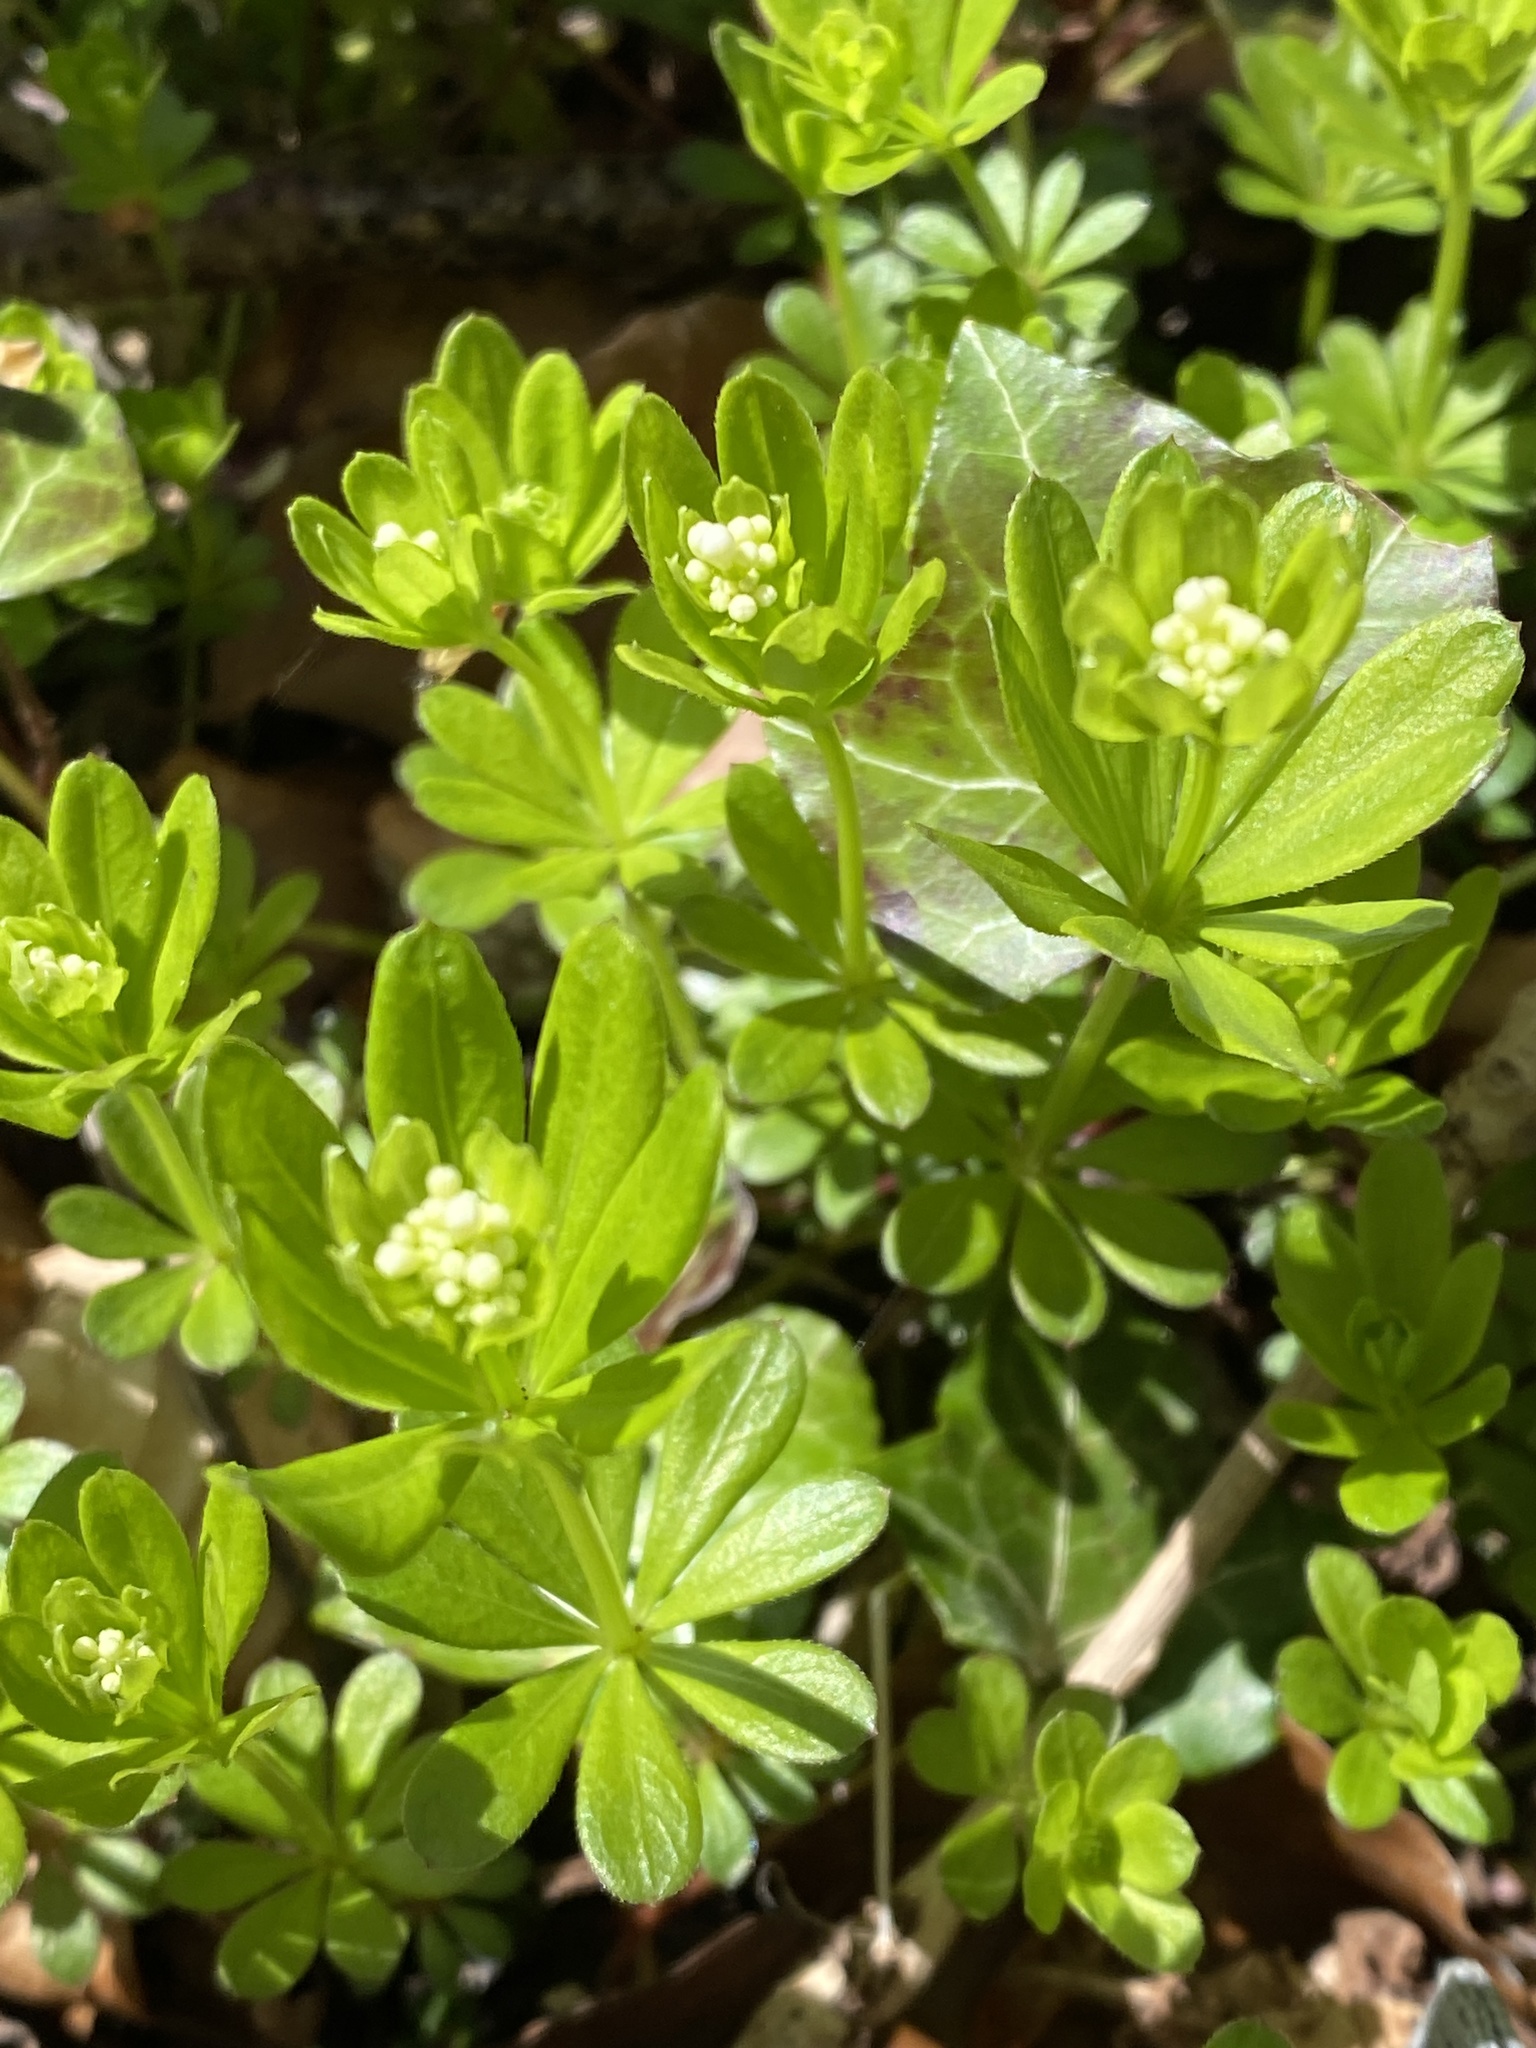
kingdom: Plantae
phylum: Tracheophyta
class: Magnoliopsida
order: Gentianales
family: Rubiaceae
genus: Galium
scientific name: Galium odoratum
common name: Sweet woodruff
